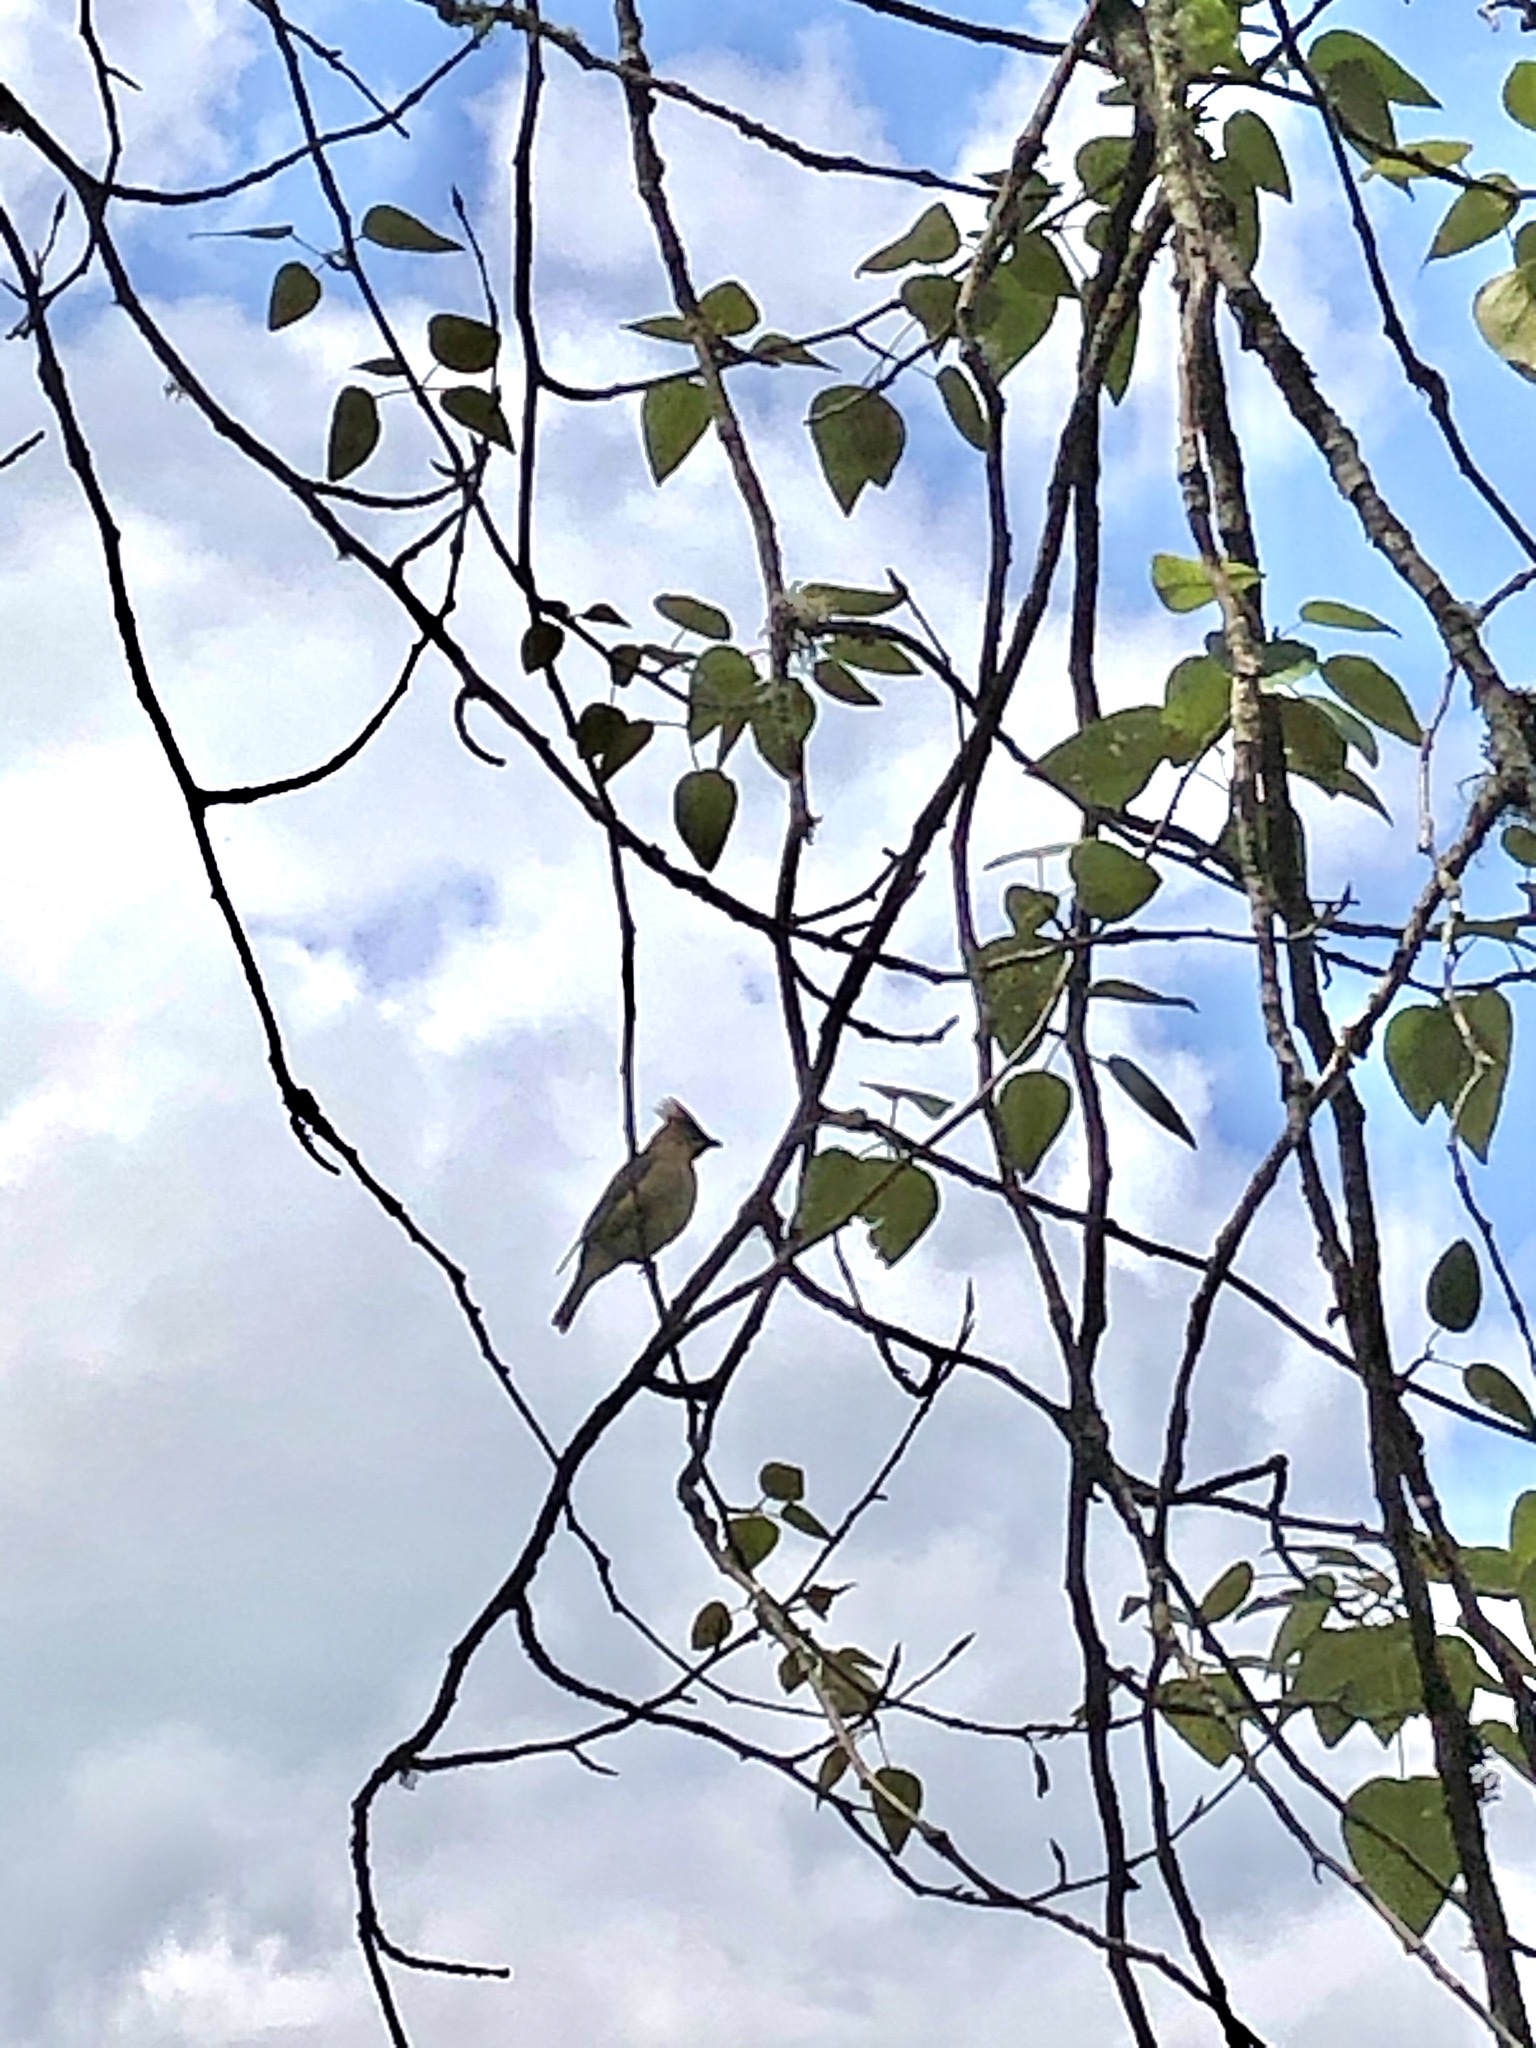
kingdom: Animalia
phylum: Chordata
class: Aves
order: Passeriformes
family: Bombycillidae
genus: Bombycilla
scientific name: Bombycilla cedrorum
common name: Cedar waxwing
